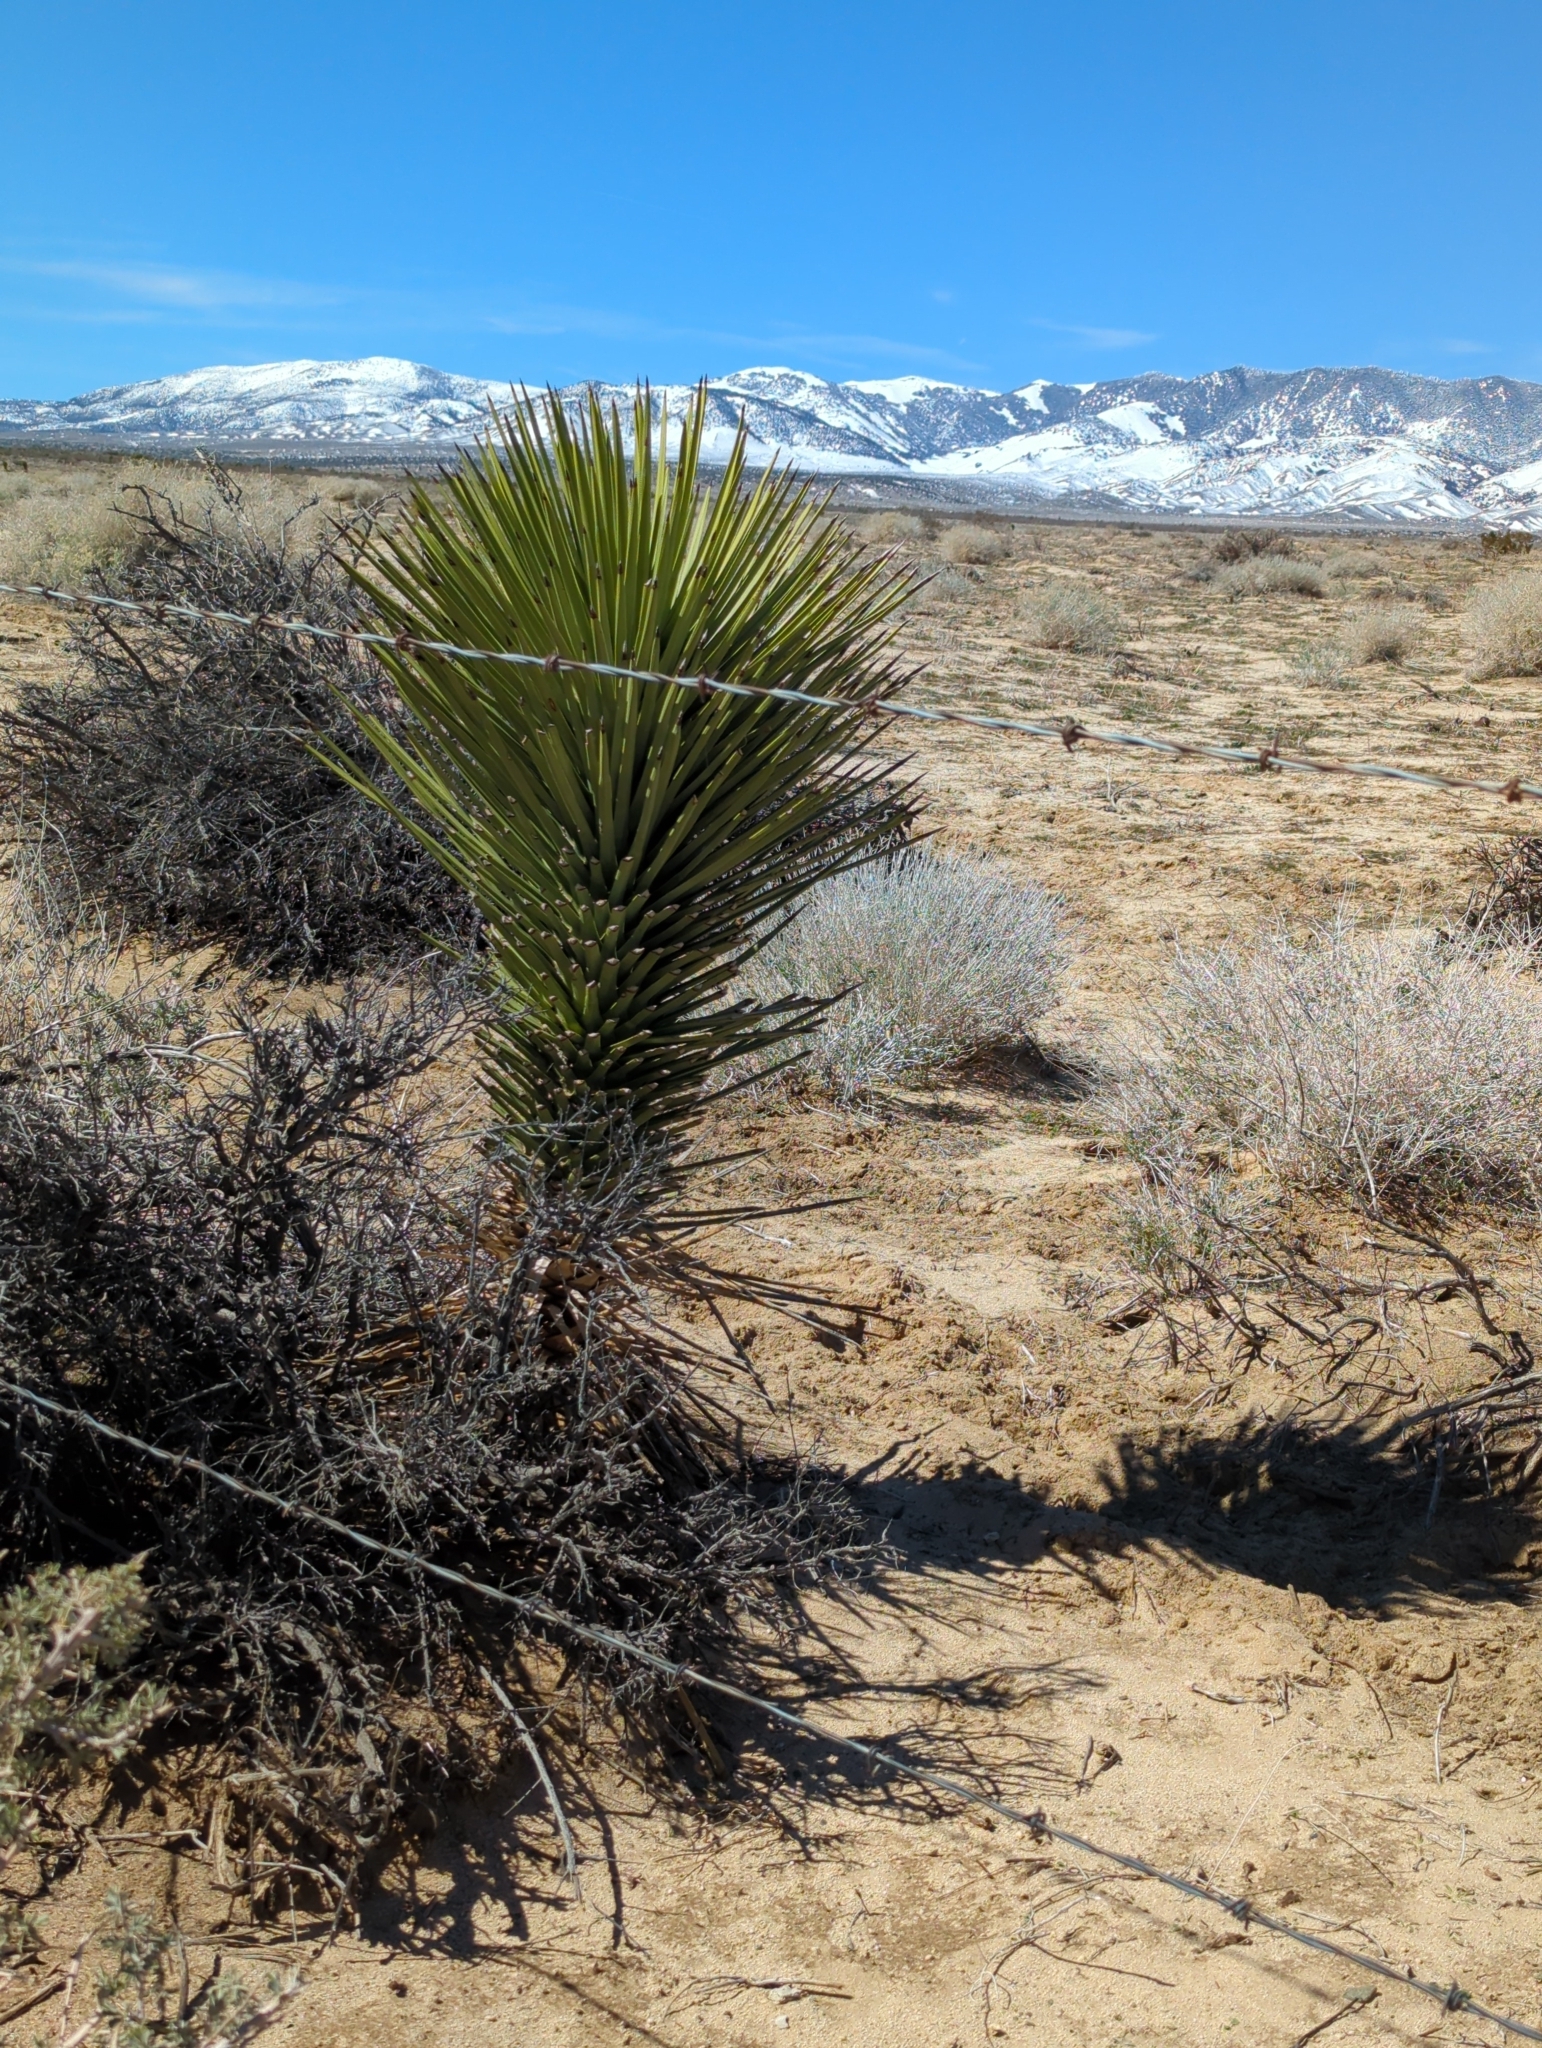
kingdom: Plantae
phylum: Tracheophyta
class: Liliopsida
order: Asparagales
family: Asparagaceae
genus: Yucca
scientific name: Yucca brevifolia
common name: Joshua tree
